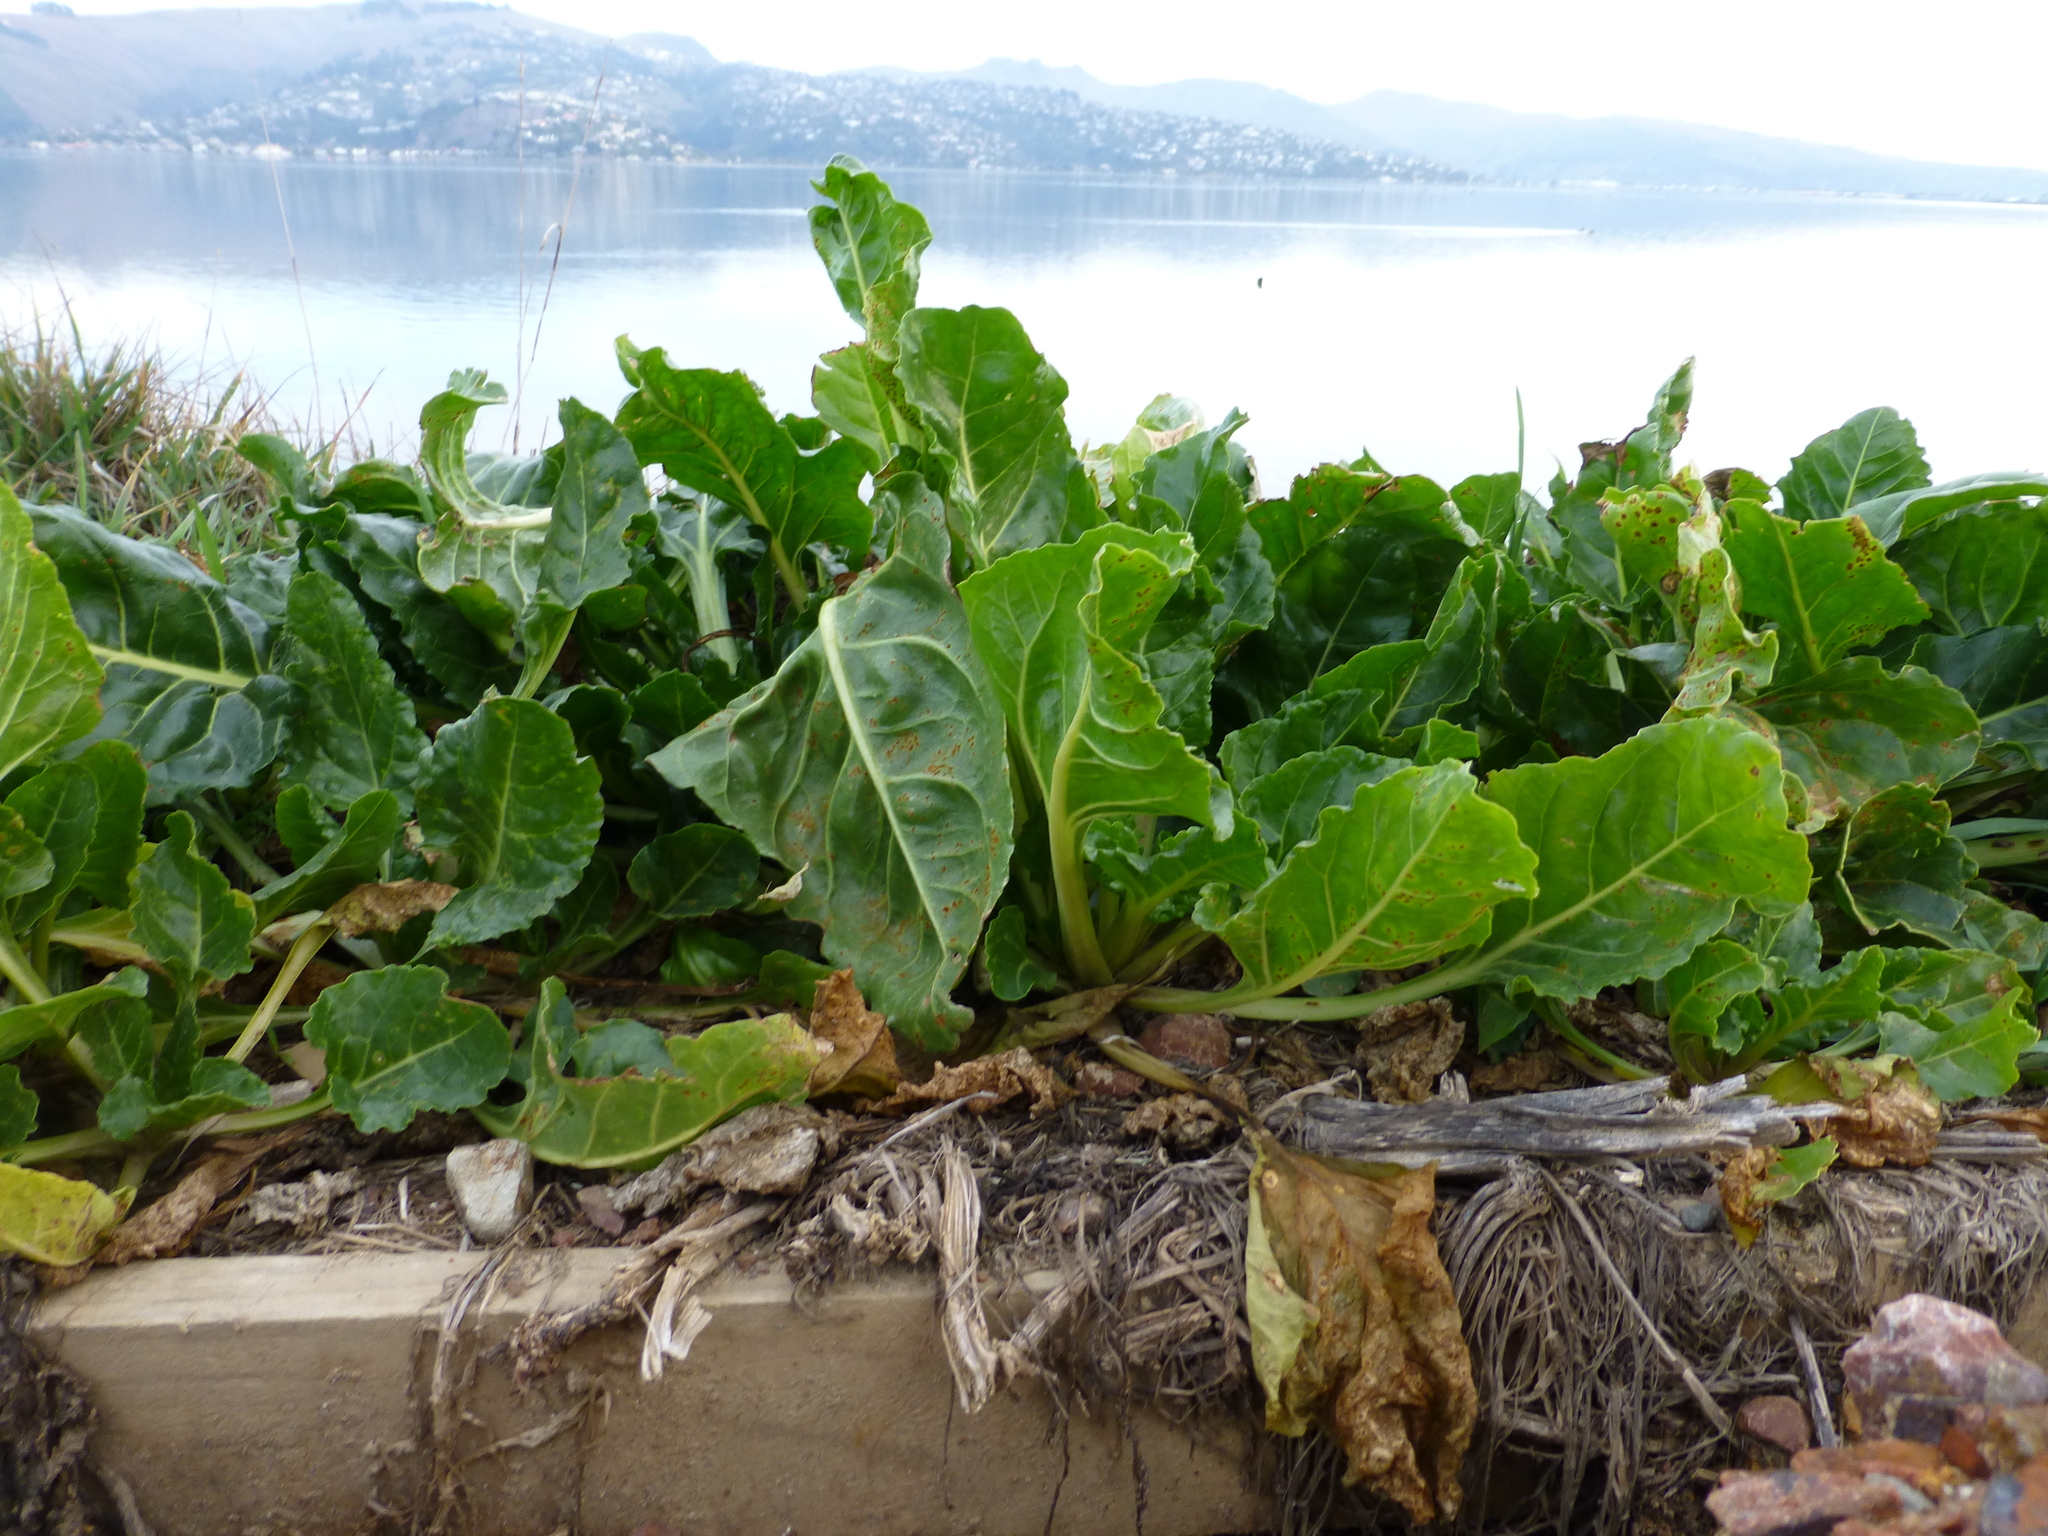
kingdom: Plantae
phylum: Tracheophyta
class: Magnoliopsida
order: Caryophyllales
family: Amaranthaceae
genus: Beta
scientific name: Beta vulgaris
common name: Beet
